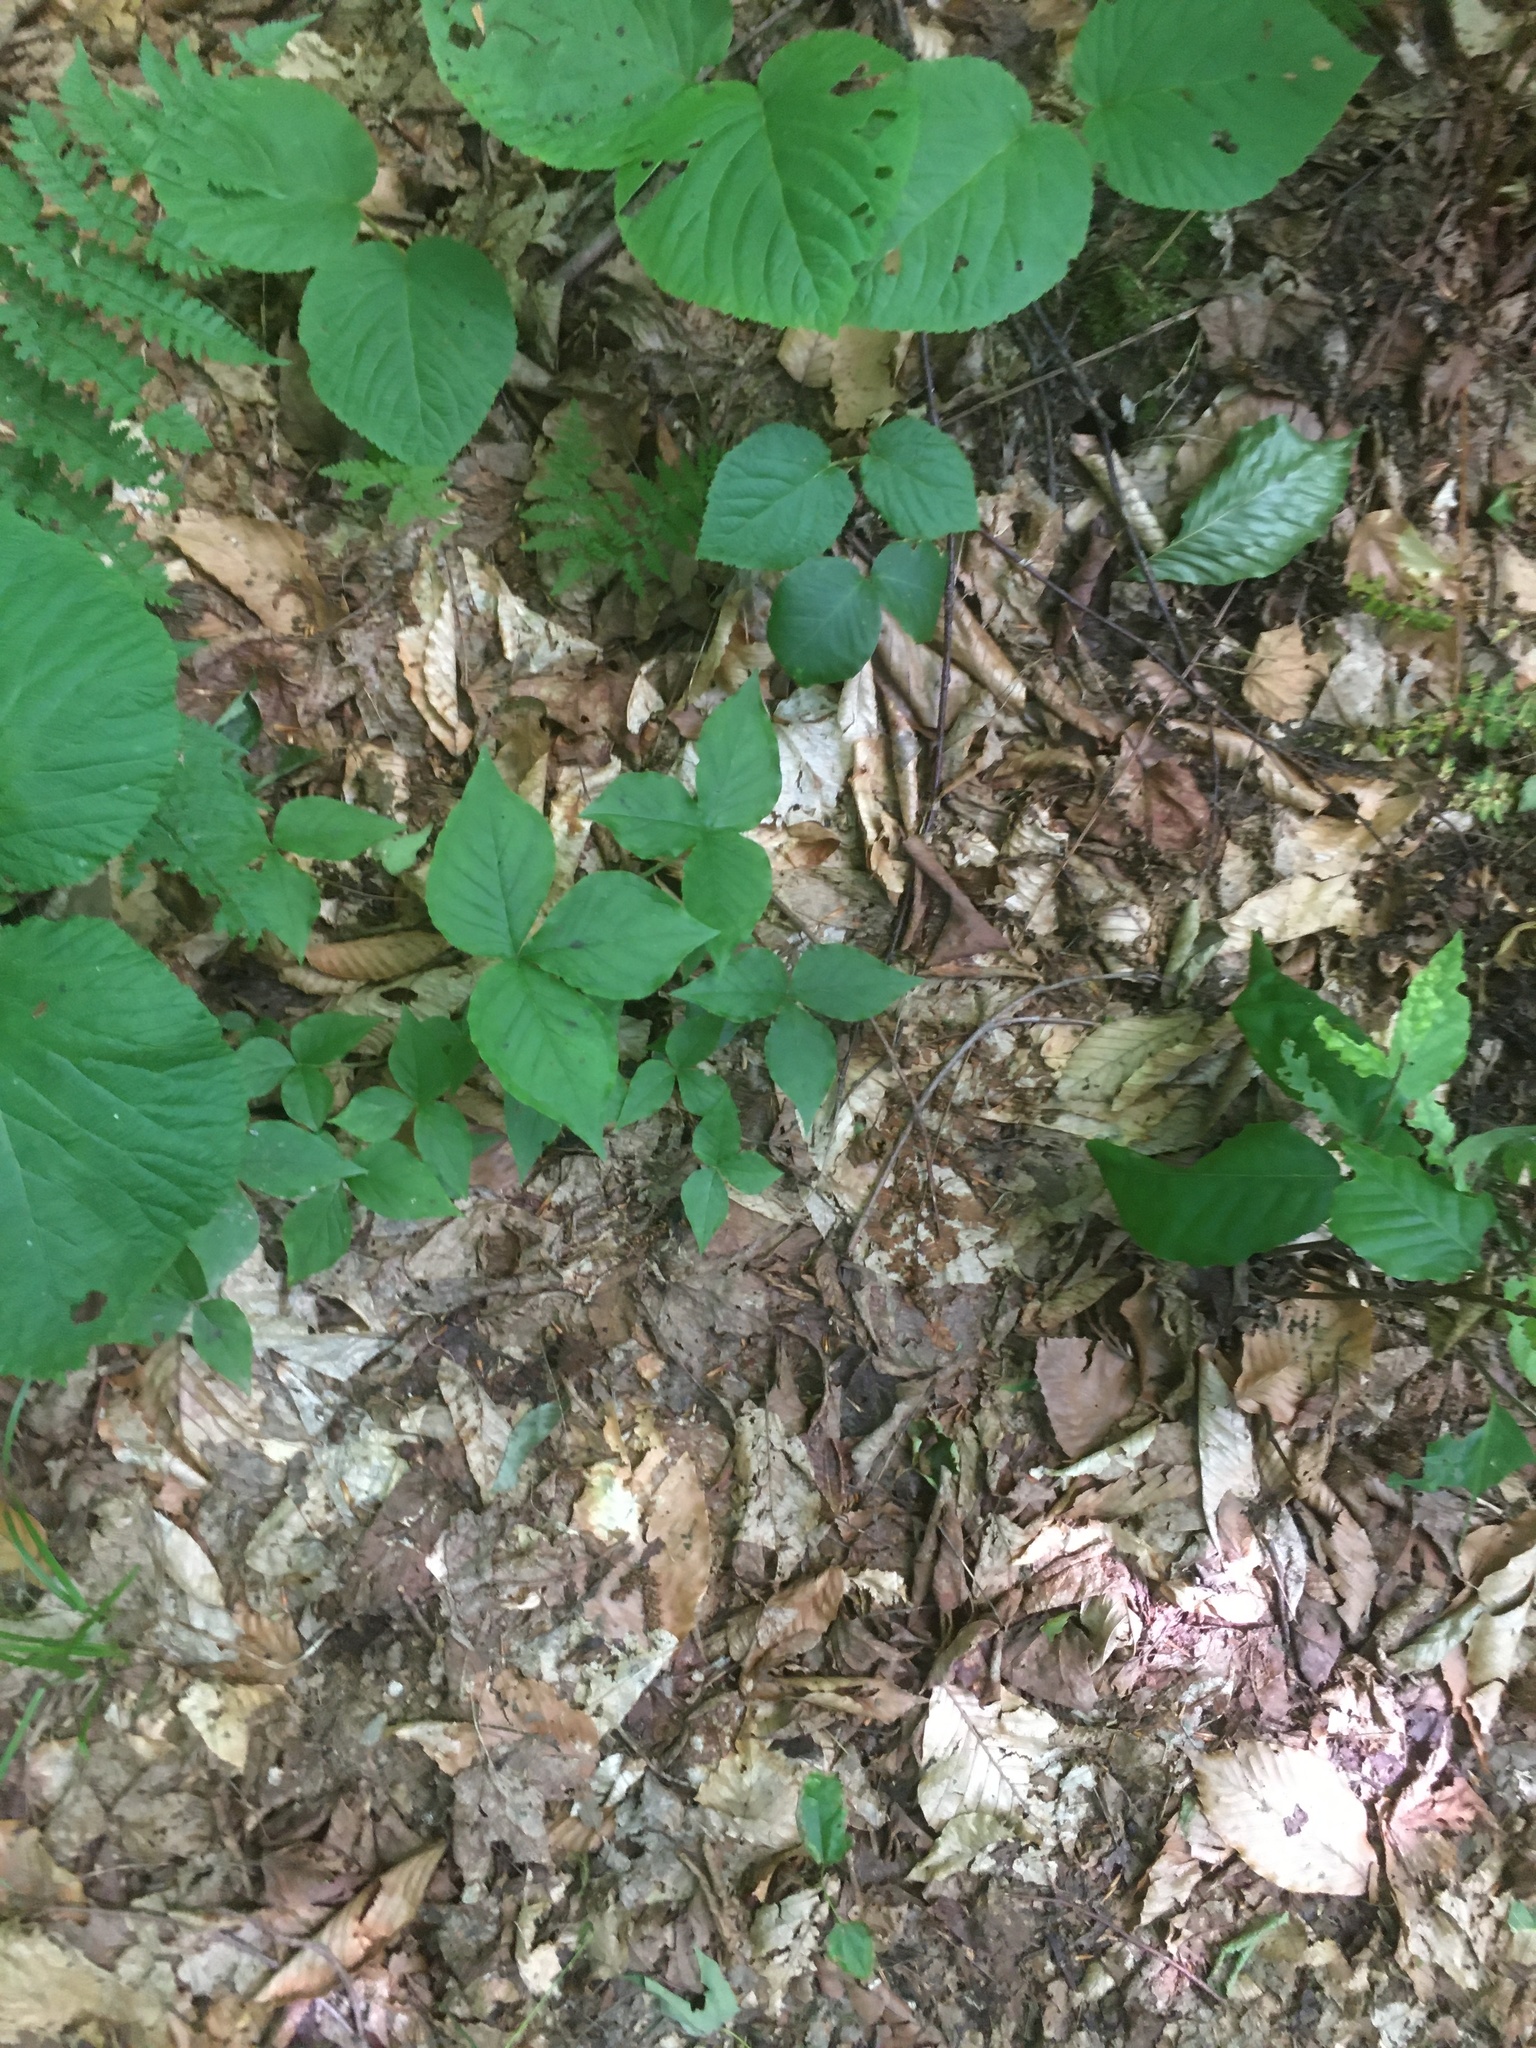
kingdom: Plantae
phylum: Tracheophyta
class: Liliopsida
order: Alismatales
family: Araceae
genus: Arisaema
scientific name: Arisaema triphyllum
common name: Jack-in-the-pulpit
